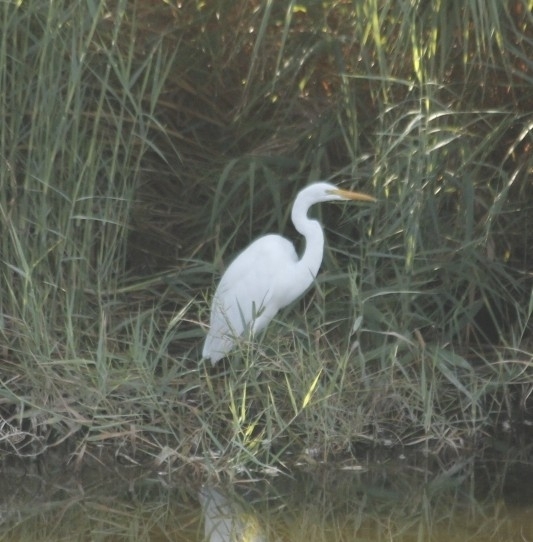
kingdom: Animalia
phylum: Chordata
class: Aves
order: Pelecaniformes
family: Ardeidae
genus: Ardea
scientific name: Ardea alba
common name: Great egret
